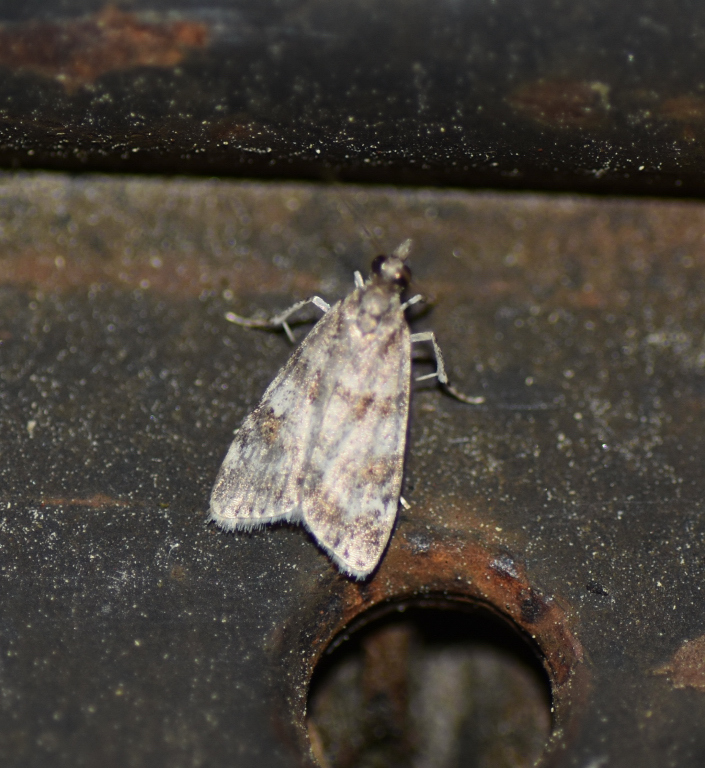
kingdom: Animalia
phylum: Arthropoda
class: Insecta
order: Lepidoptera
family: Crambidae
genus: Scoparia
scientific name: Scoparia biplagialis
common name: Double-striped scoparia moth
